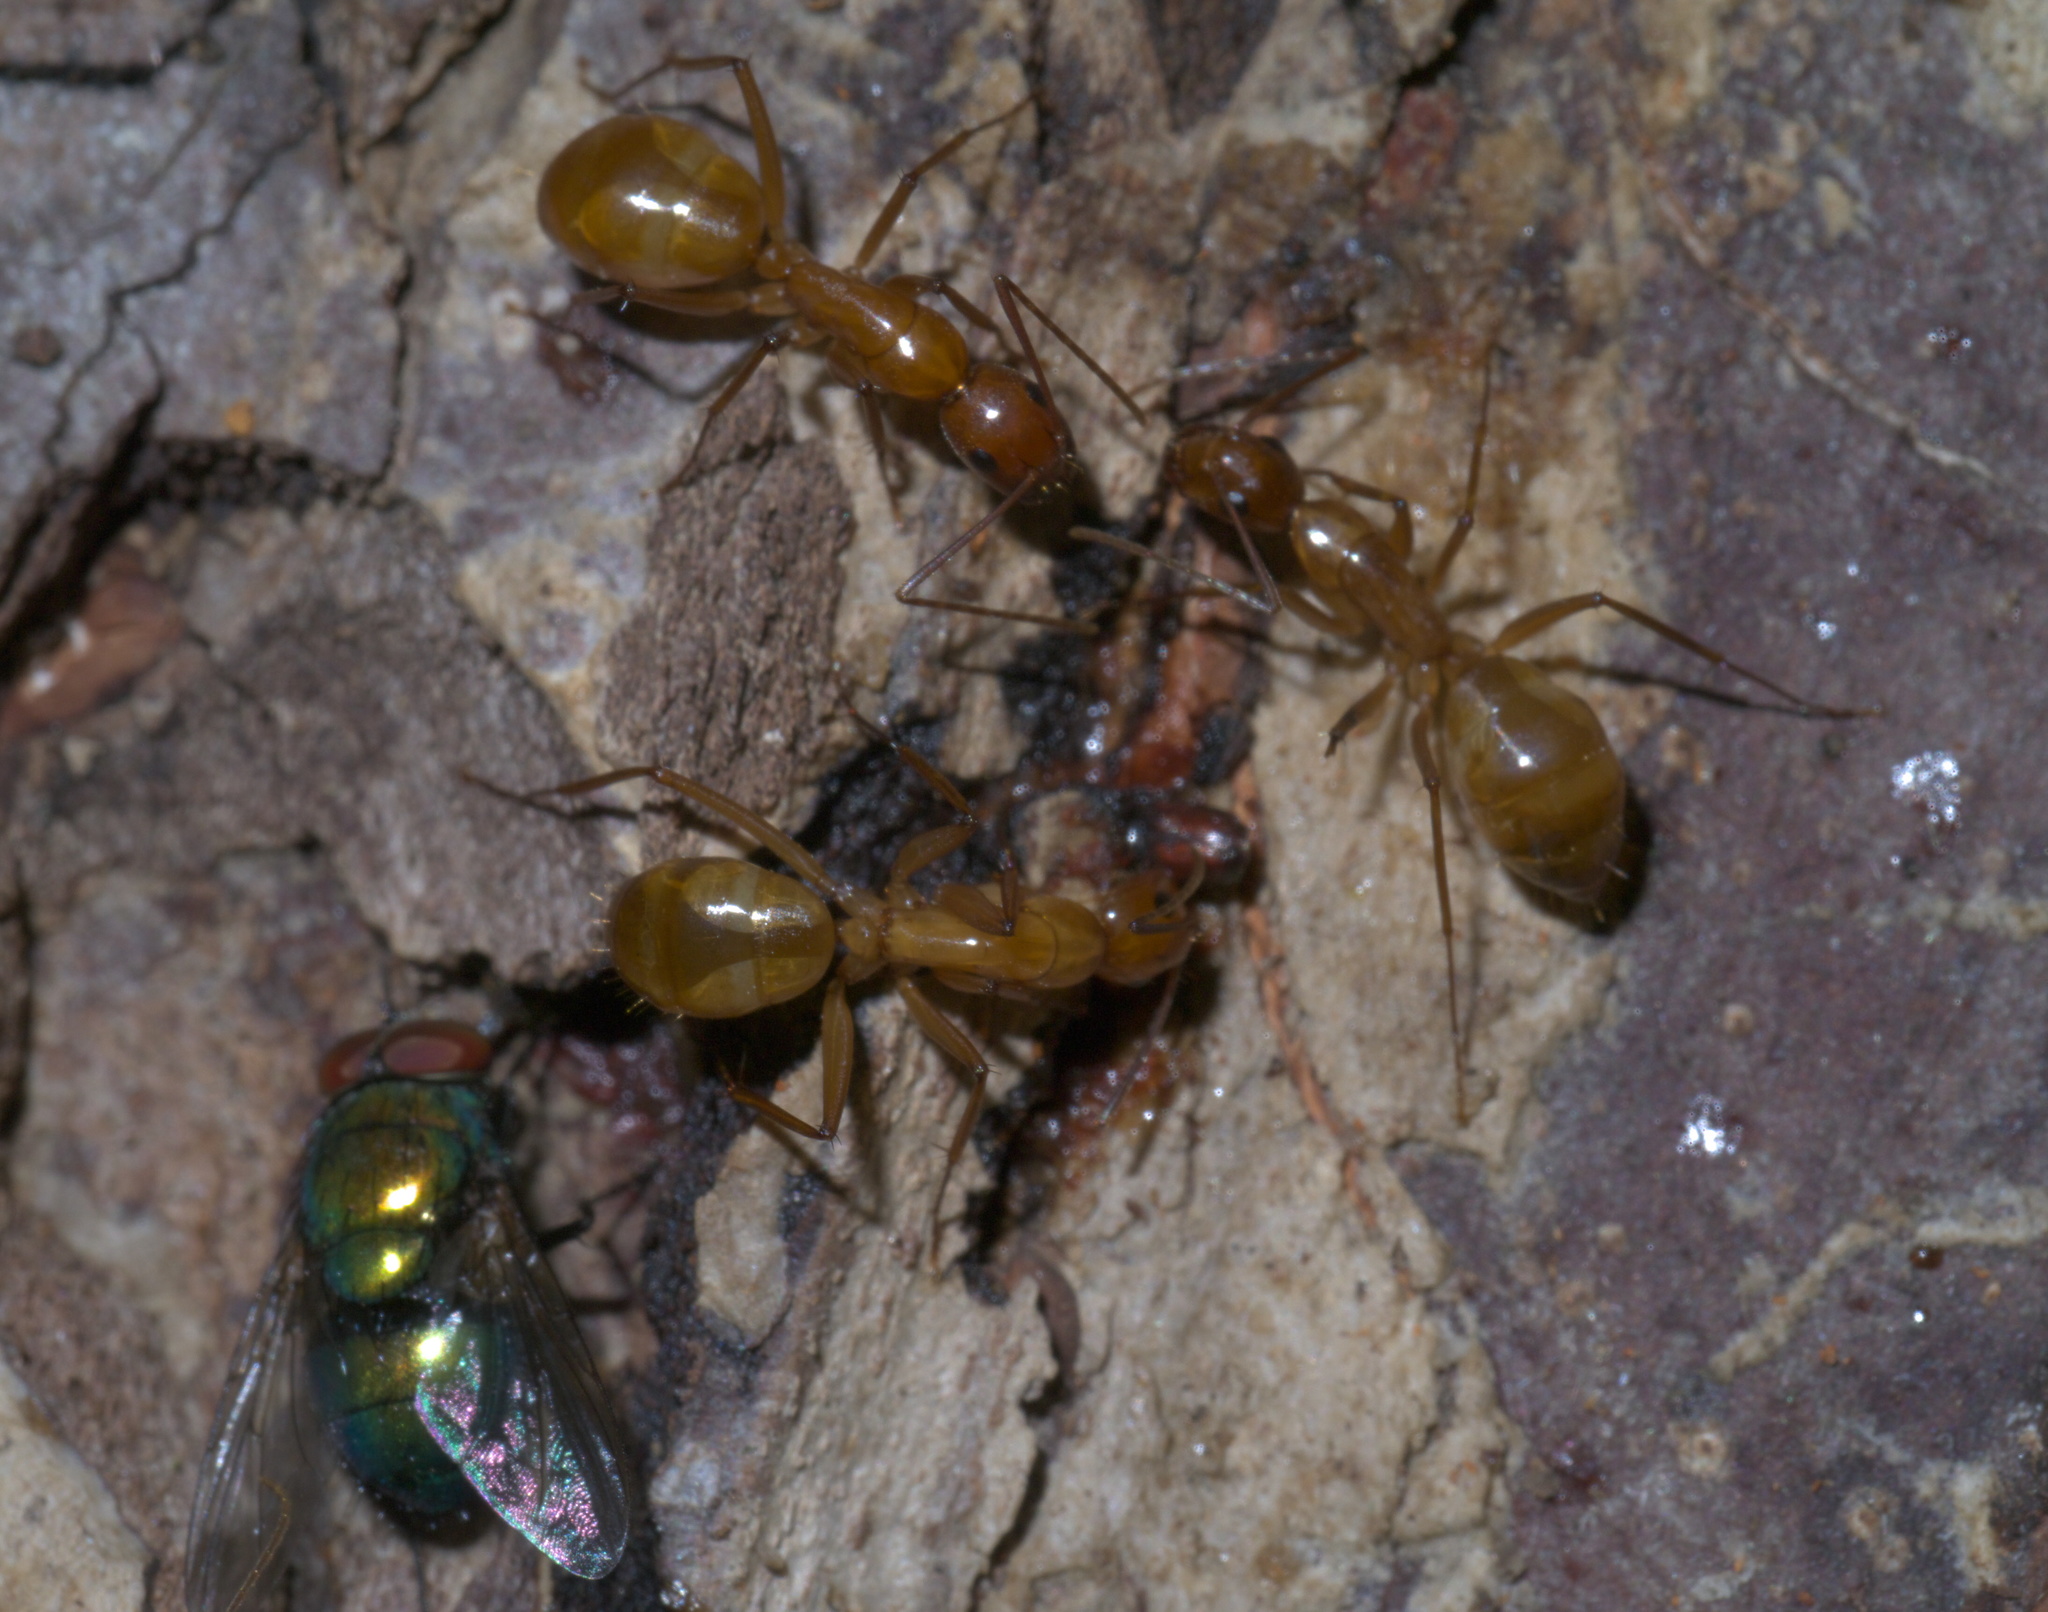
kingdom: Animalia
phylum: Arthropoda
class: Insecta
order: Hymenoptera
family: Formicidae
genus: Camponotus
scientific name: Camponotus castaneus
